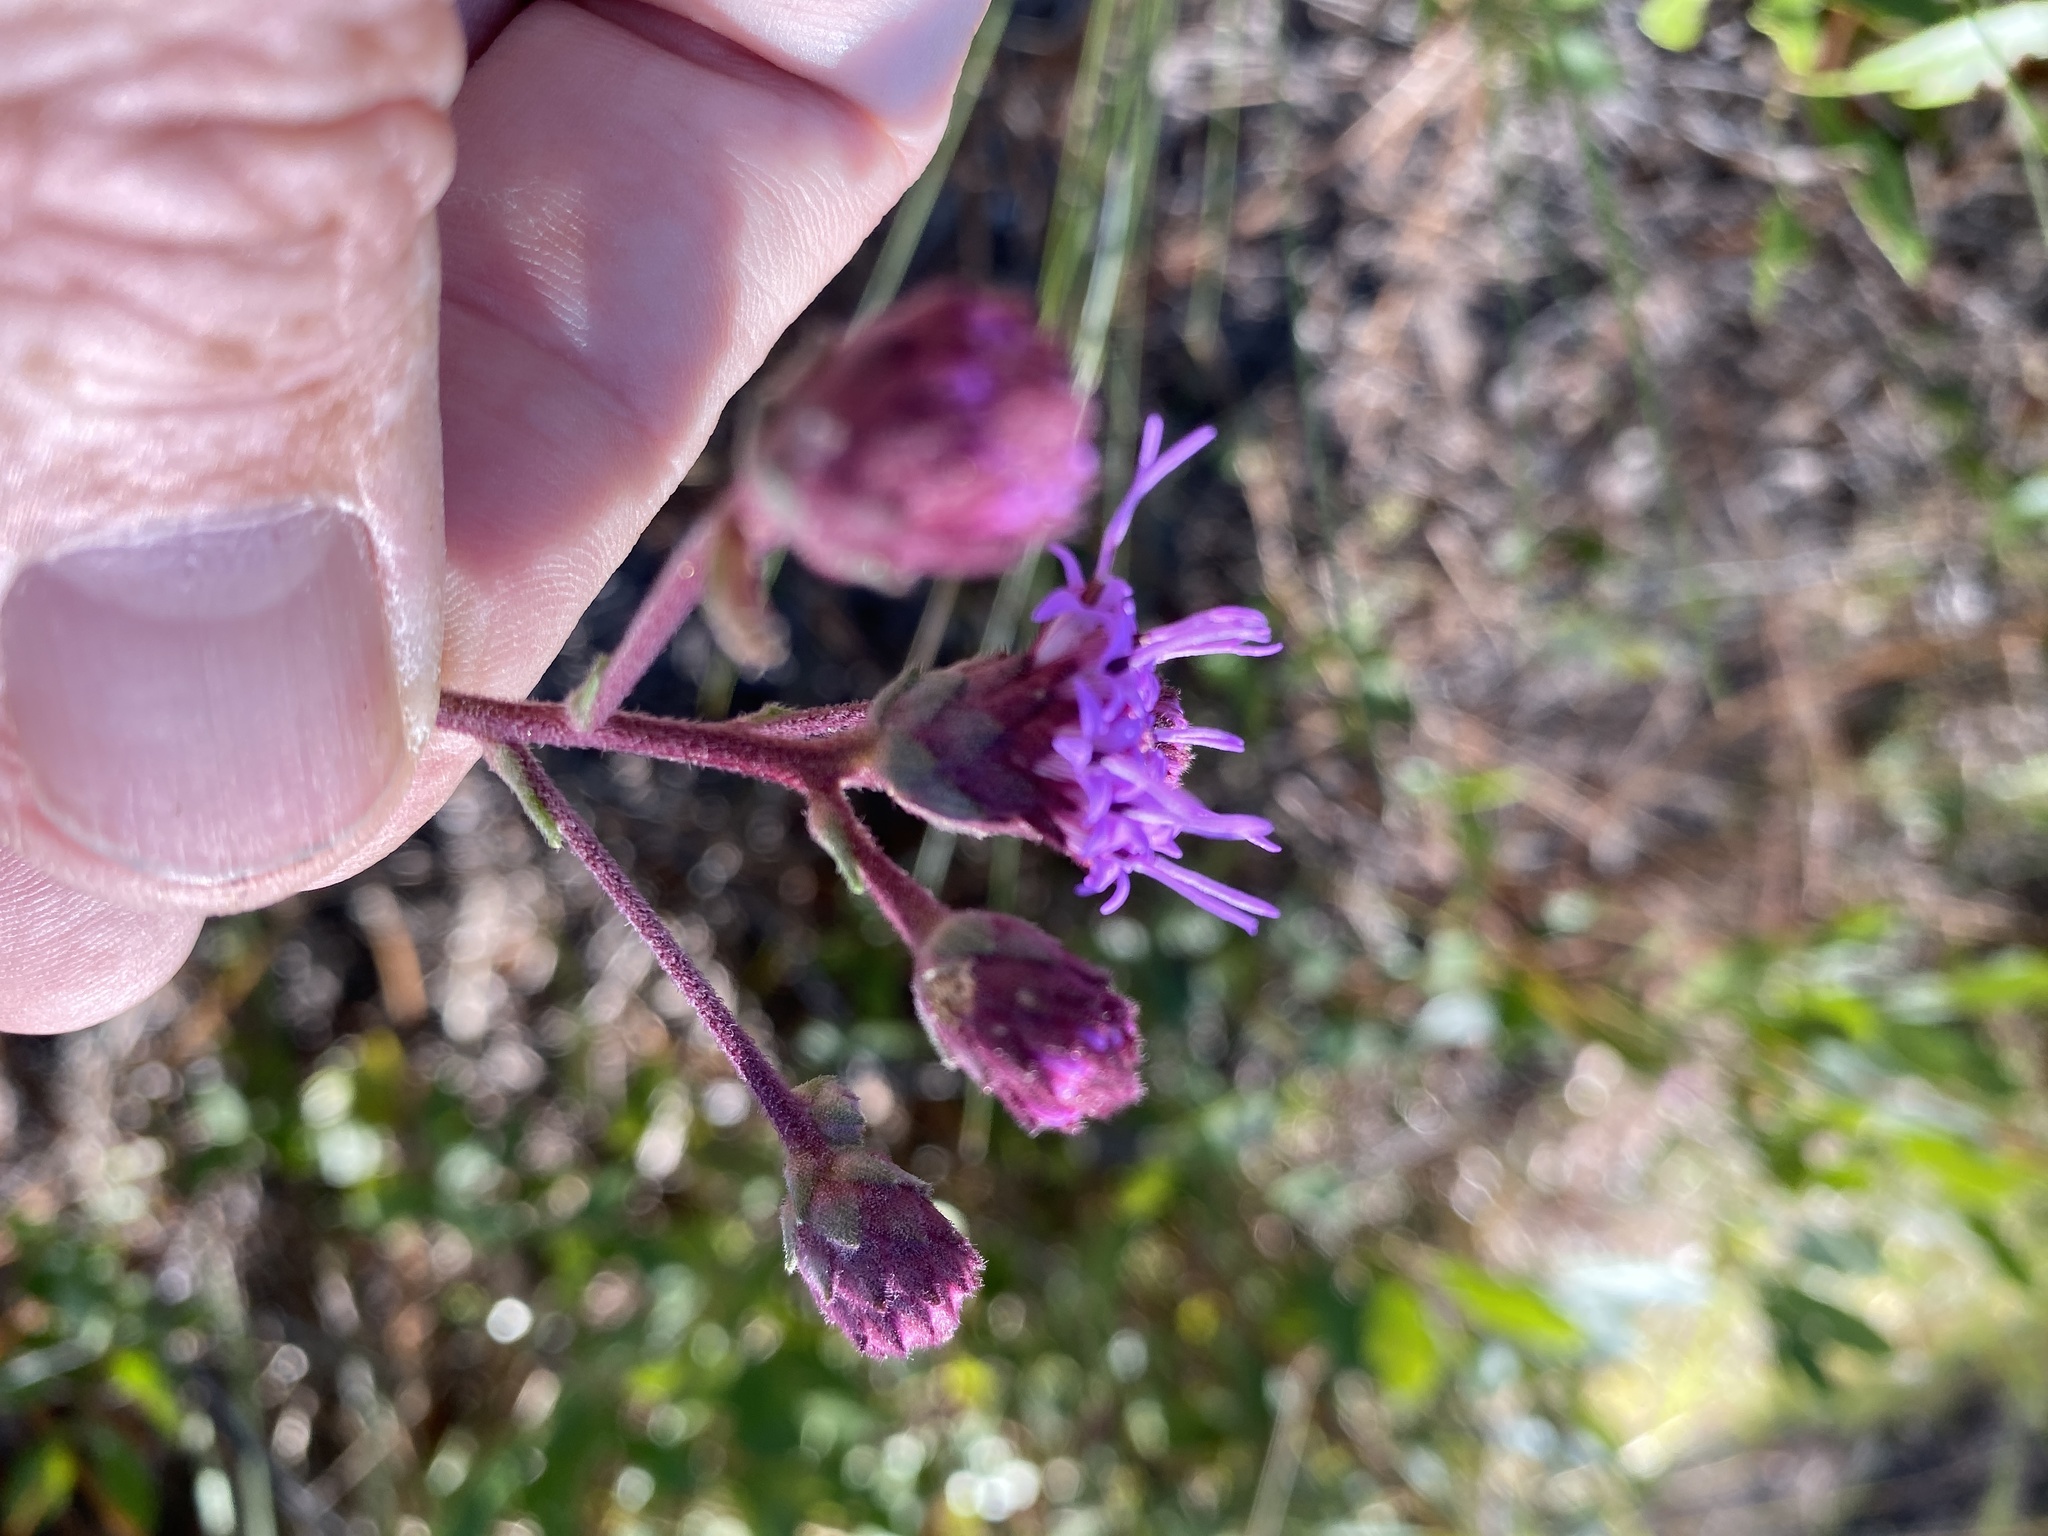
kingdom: Plantae
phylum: Tracheophyta
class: Magnoliopsida
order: Asterales
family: Asteraceae
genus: Carphephorus
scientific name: Carphephorus tomentosus
